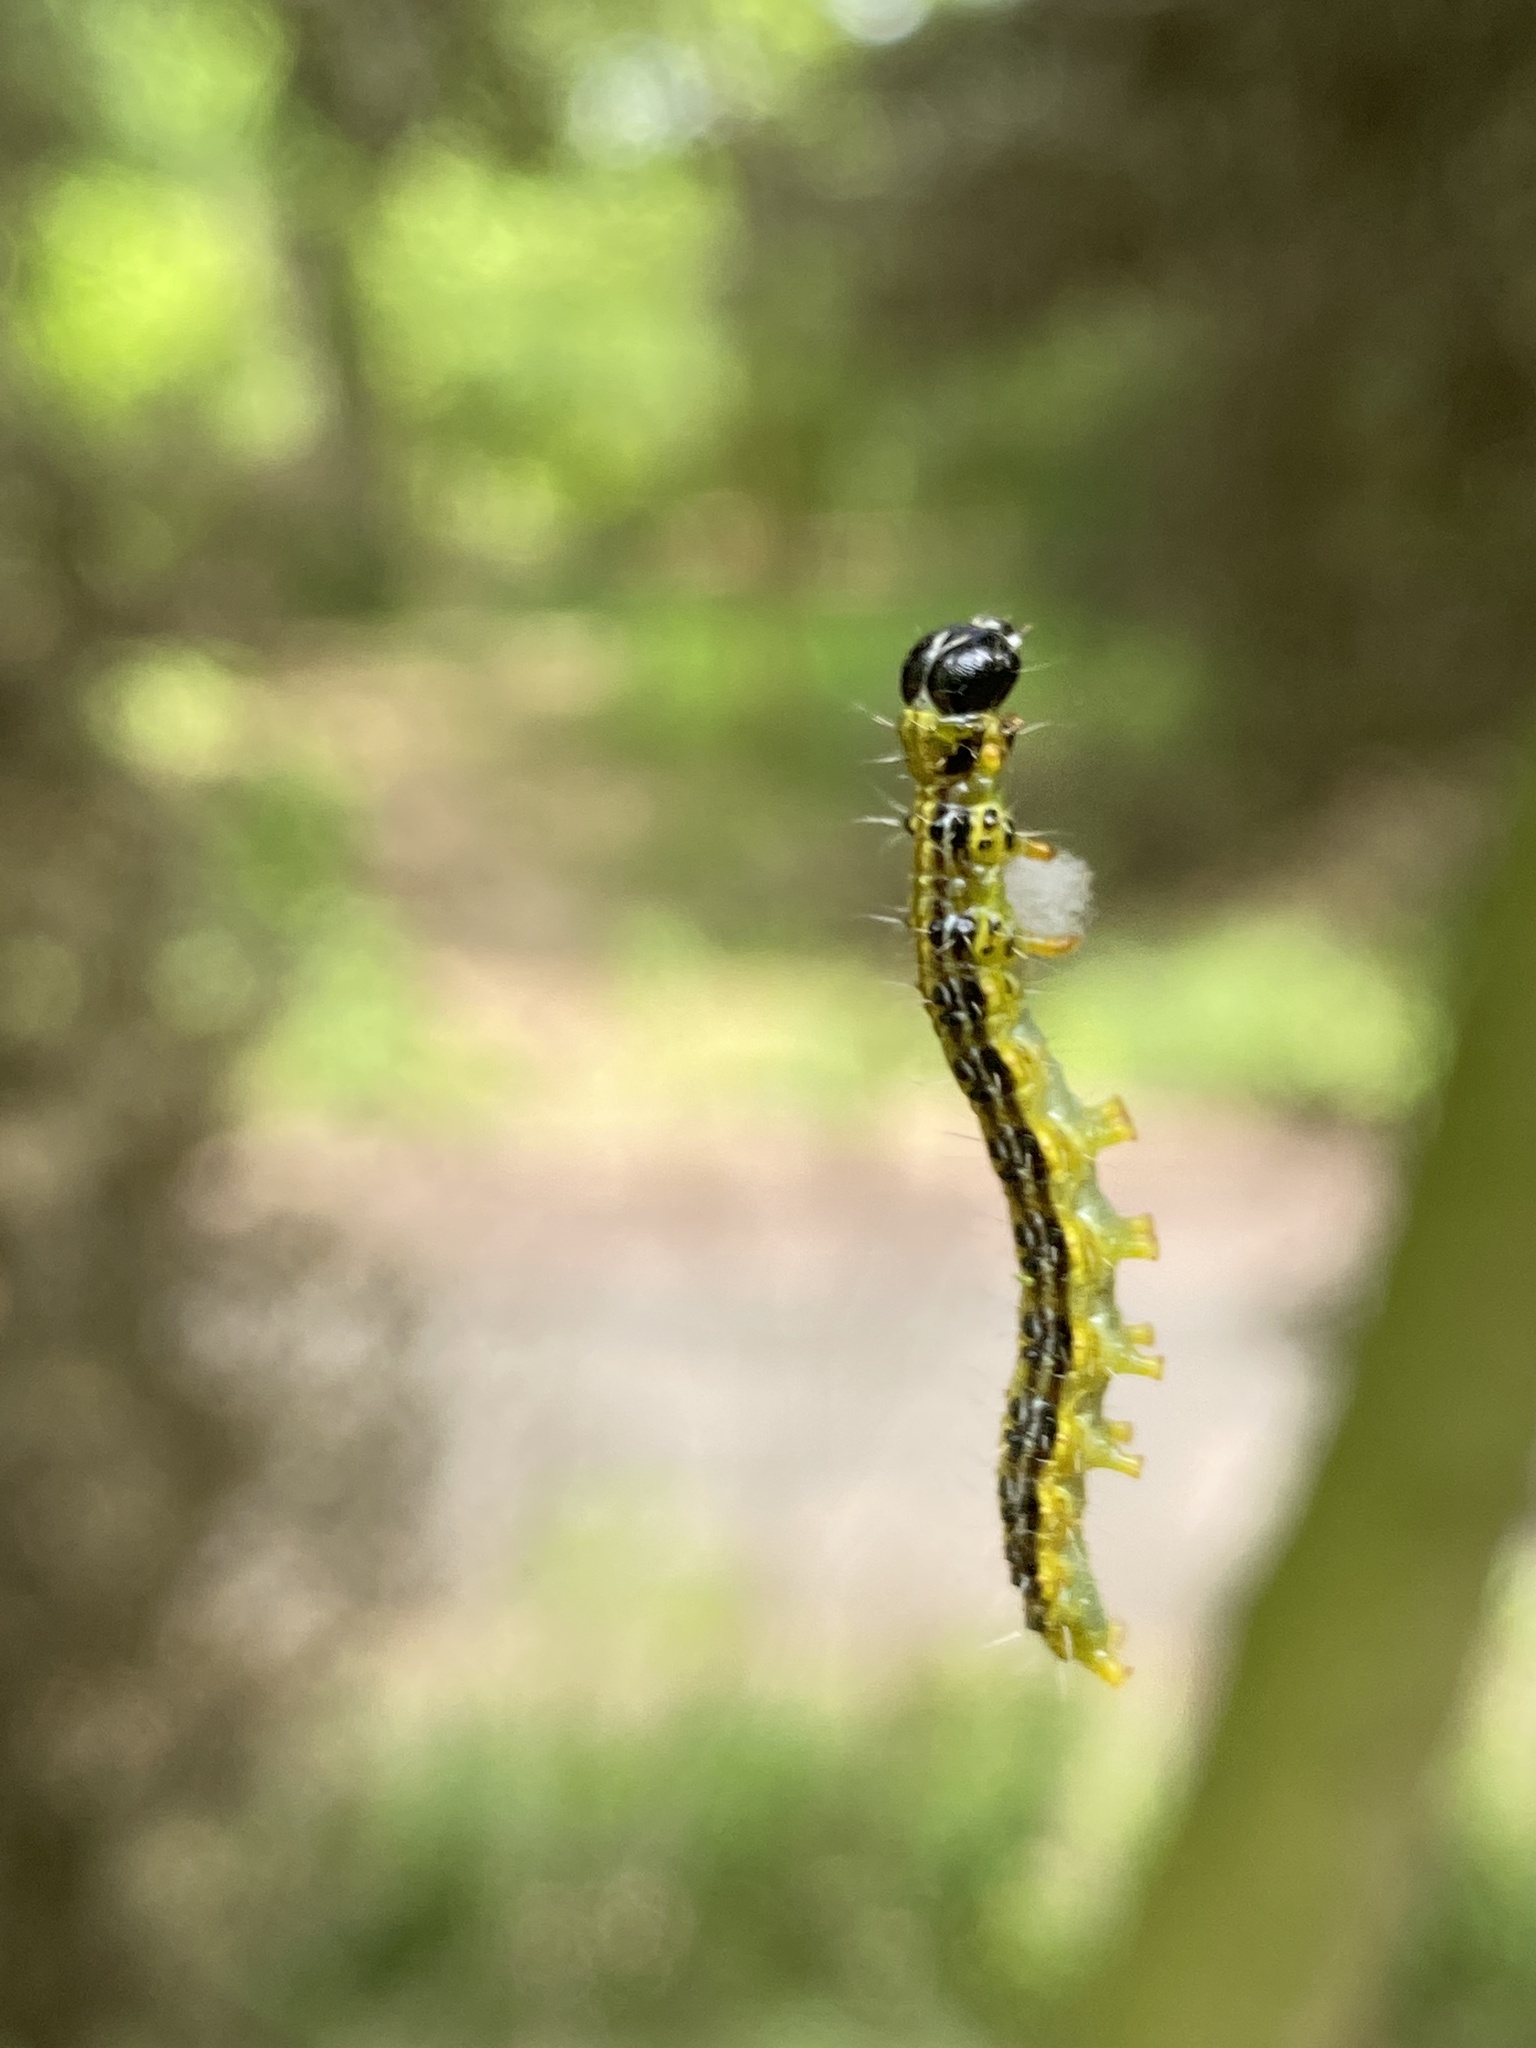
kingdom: Animalia
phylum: Arthropoda
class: Insecta
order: Lepidoptera
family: Crambidae
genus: Cydalima
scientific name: Cydalima perspectalis
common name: Box tree moth
